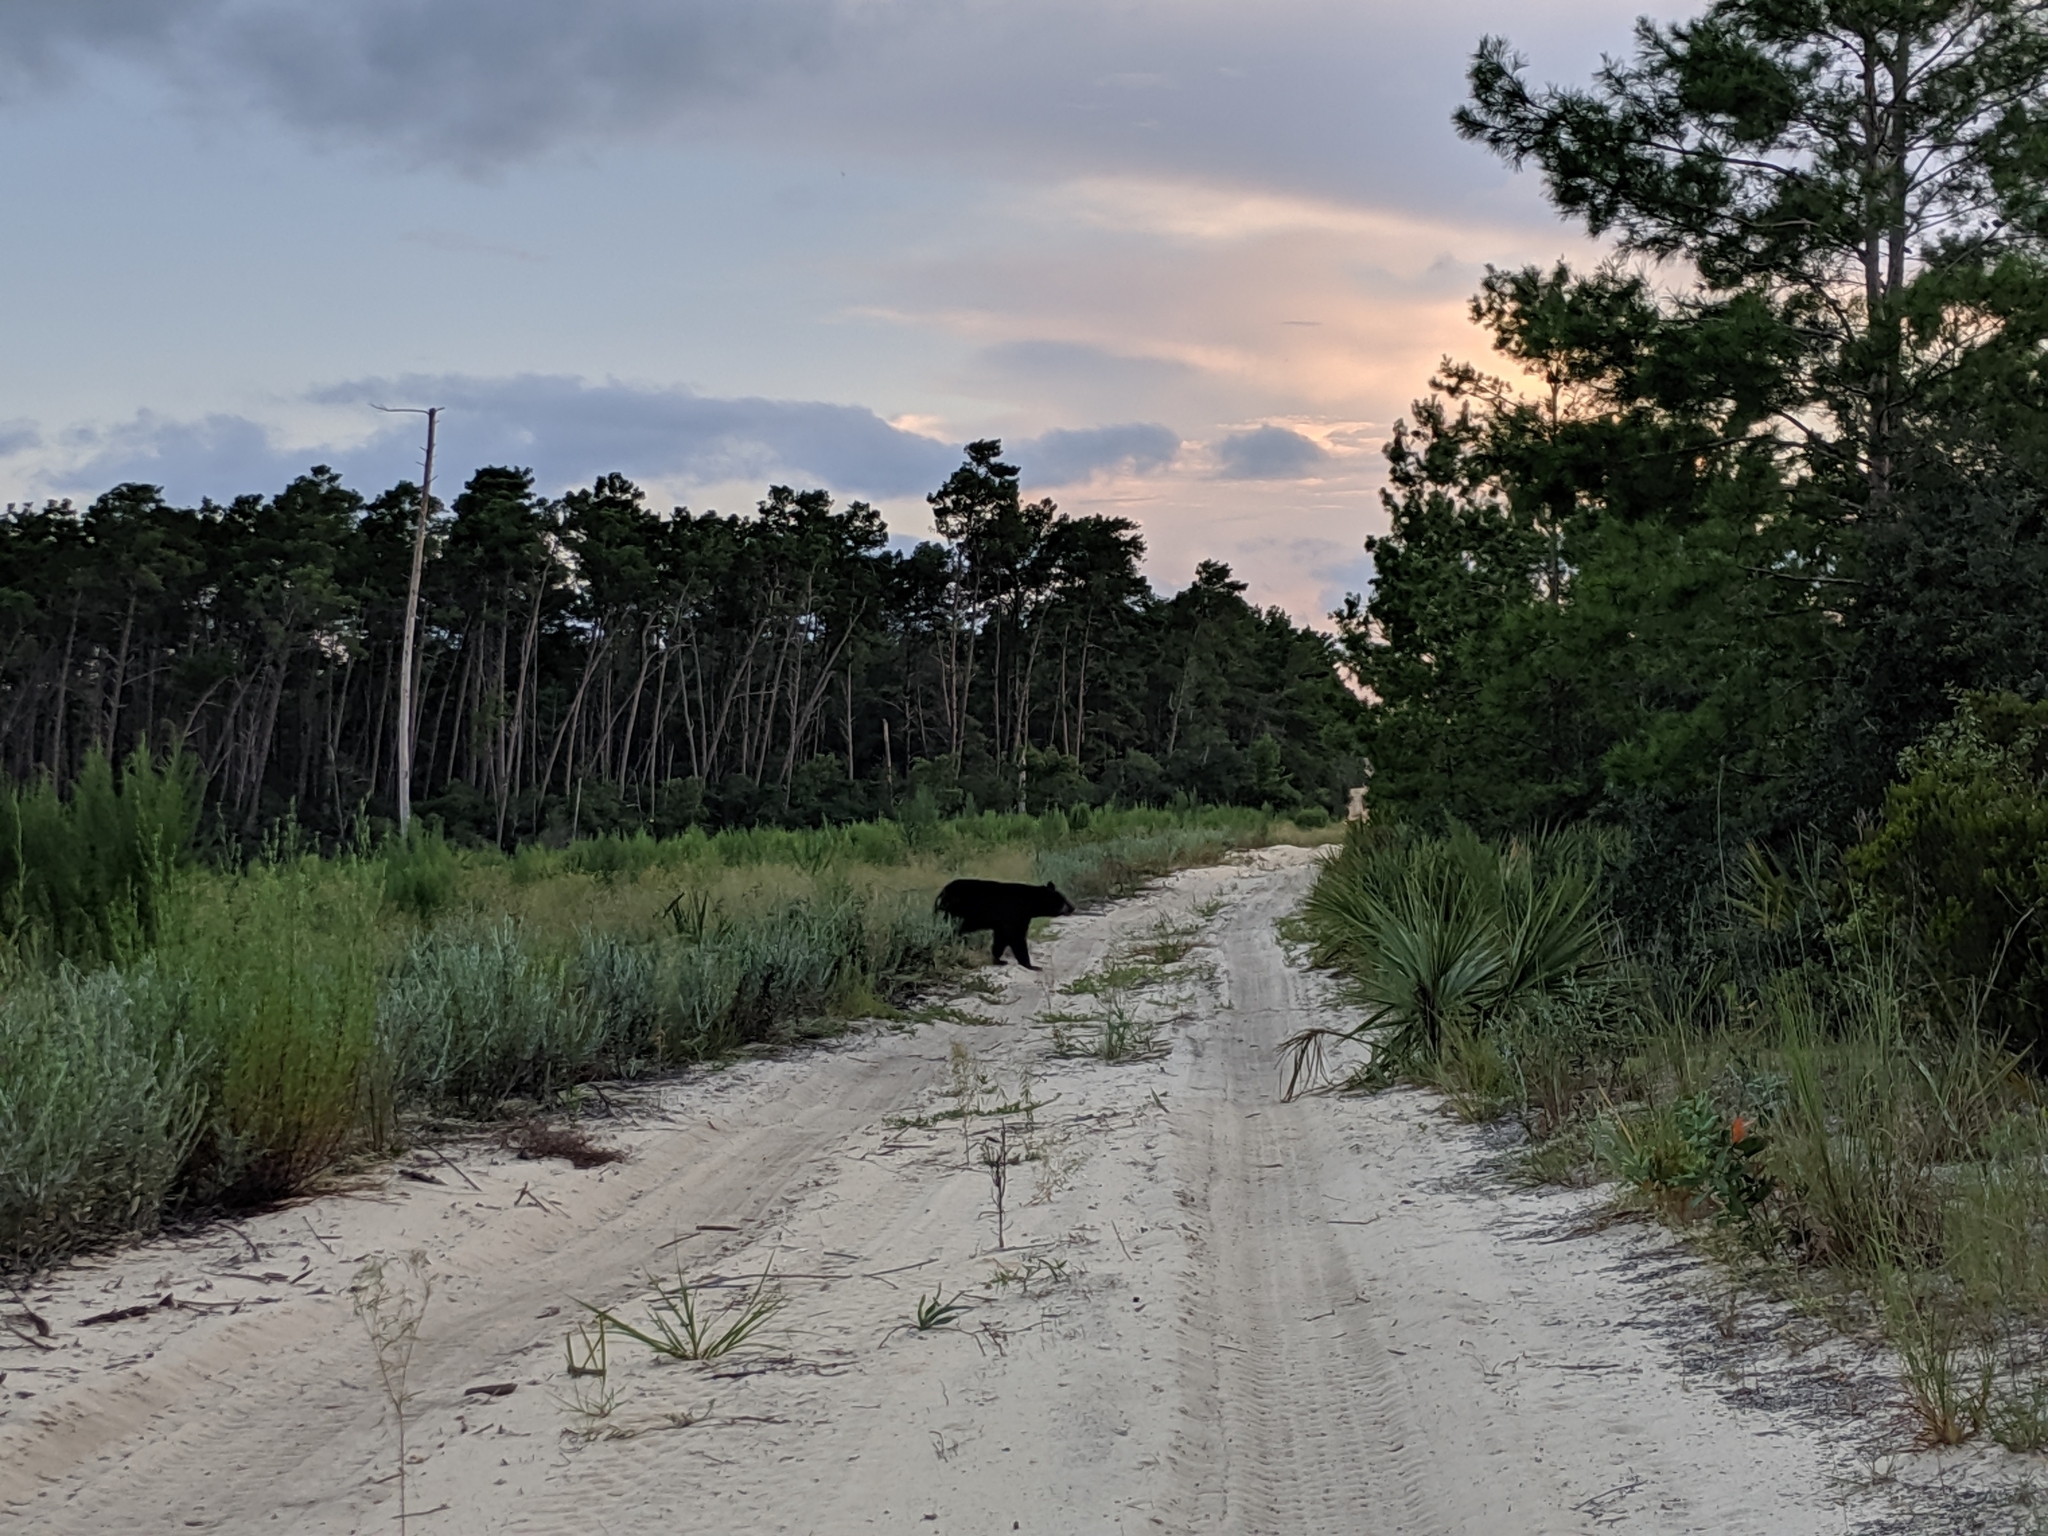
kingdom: Animalia
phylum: Chordata
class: Mammalia
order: Carnivora
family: Ursidae
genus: Ursus
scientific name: Ursus americanus
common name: American black bear
